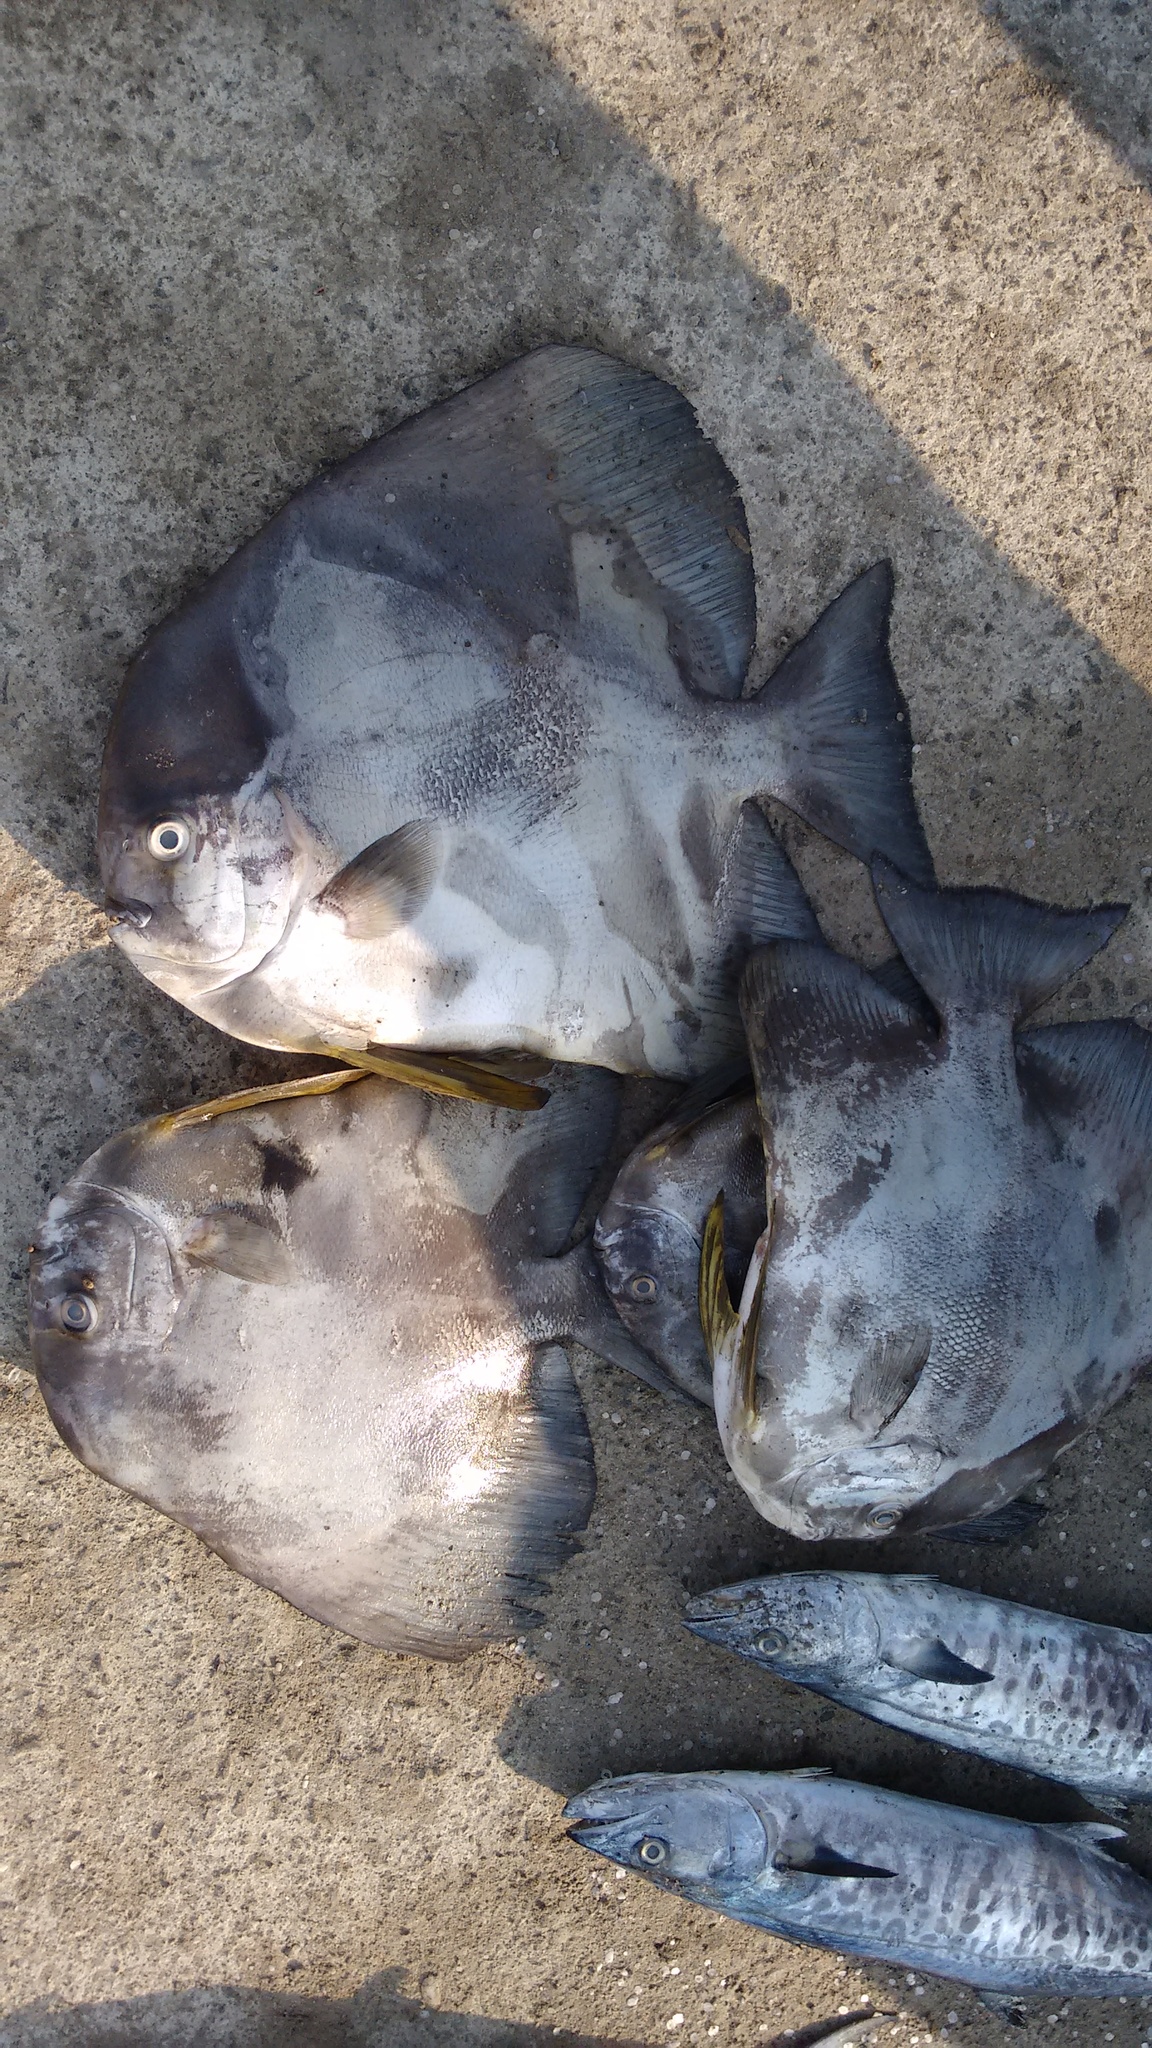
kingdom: Animalia
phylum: Chordata
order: Perciformes
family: Ephippidae
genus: Platax
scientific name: Platax teira
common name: Longfin baitfish
